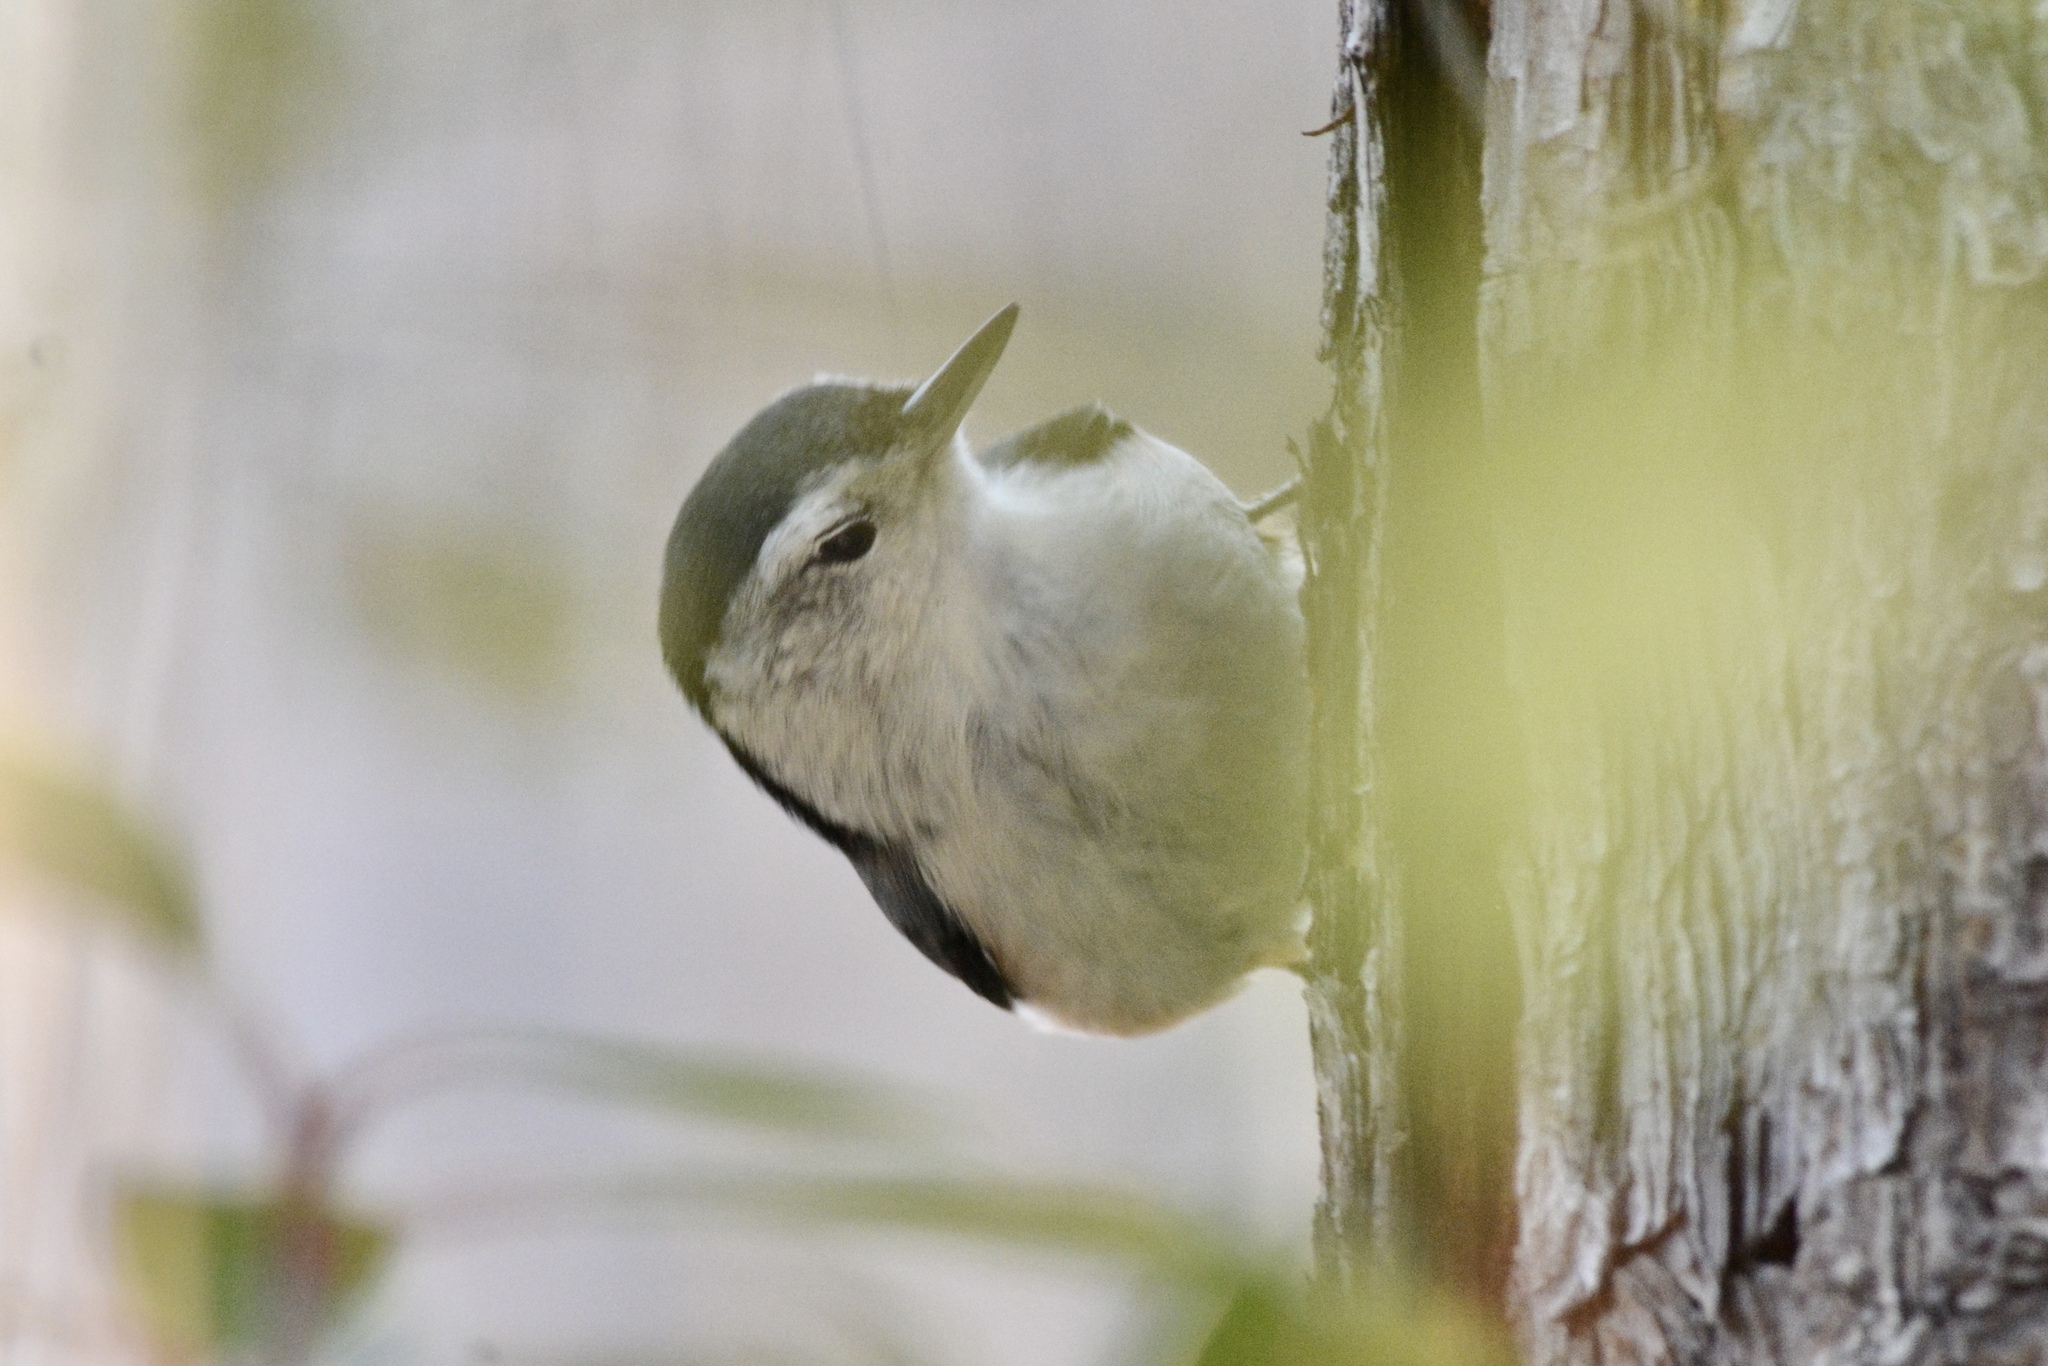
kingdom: Animalia
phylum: Chordata
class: Aves
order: Passeriformes
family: Sittidae
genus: Sitta
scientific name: Sitta carolinensis
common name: White-breasted nuthatch
